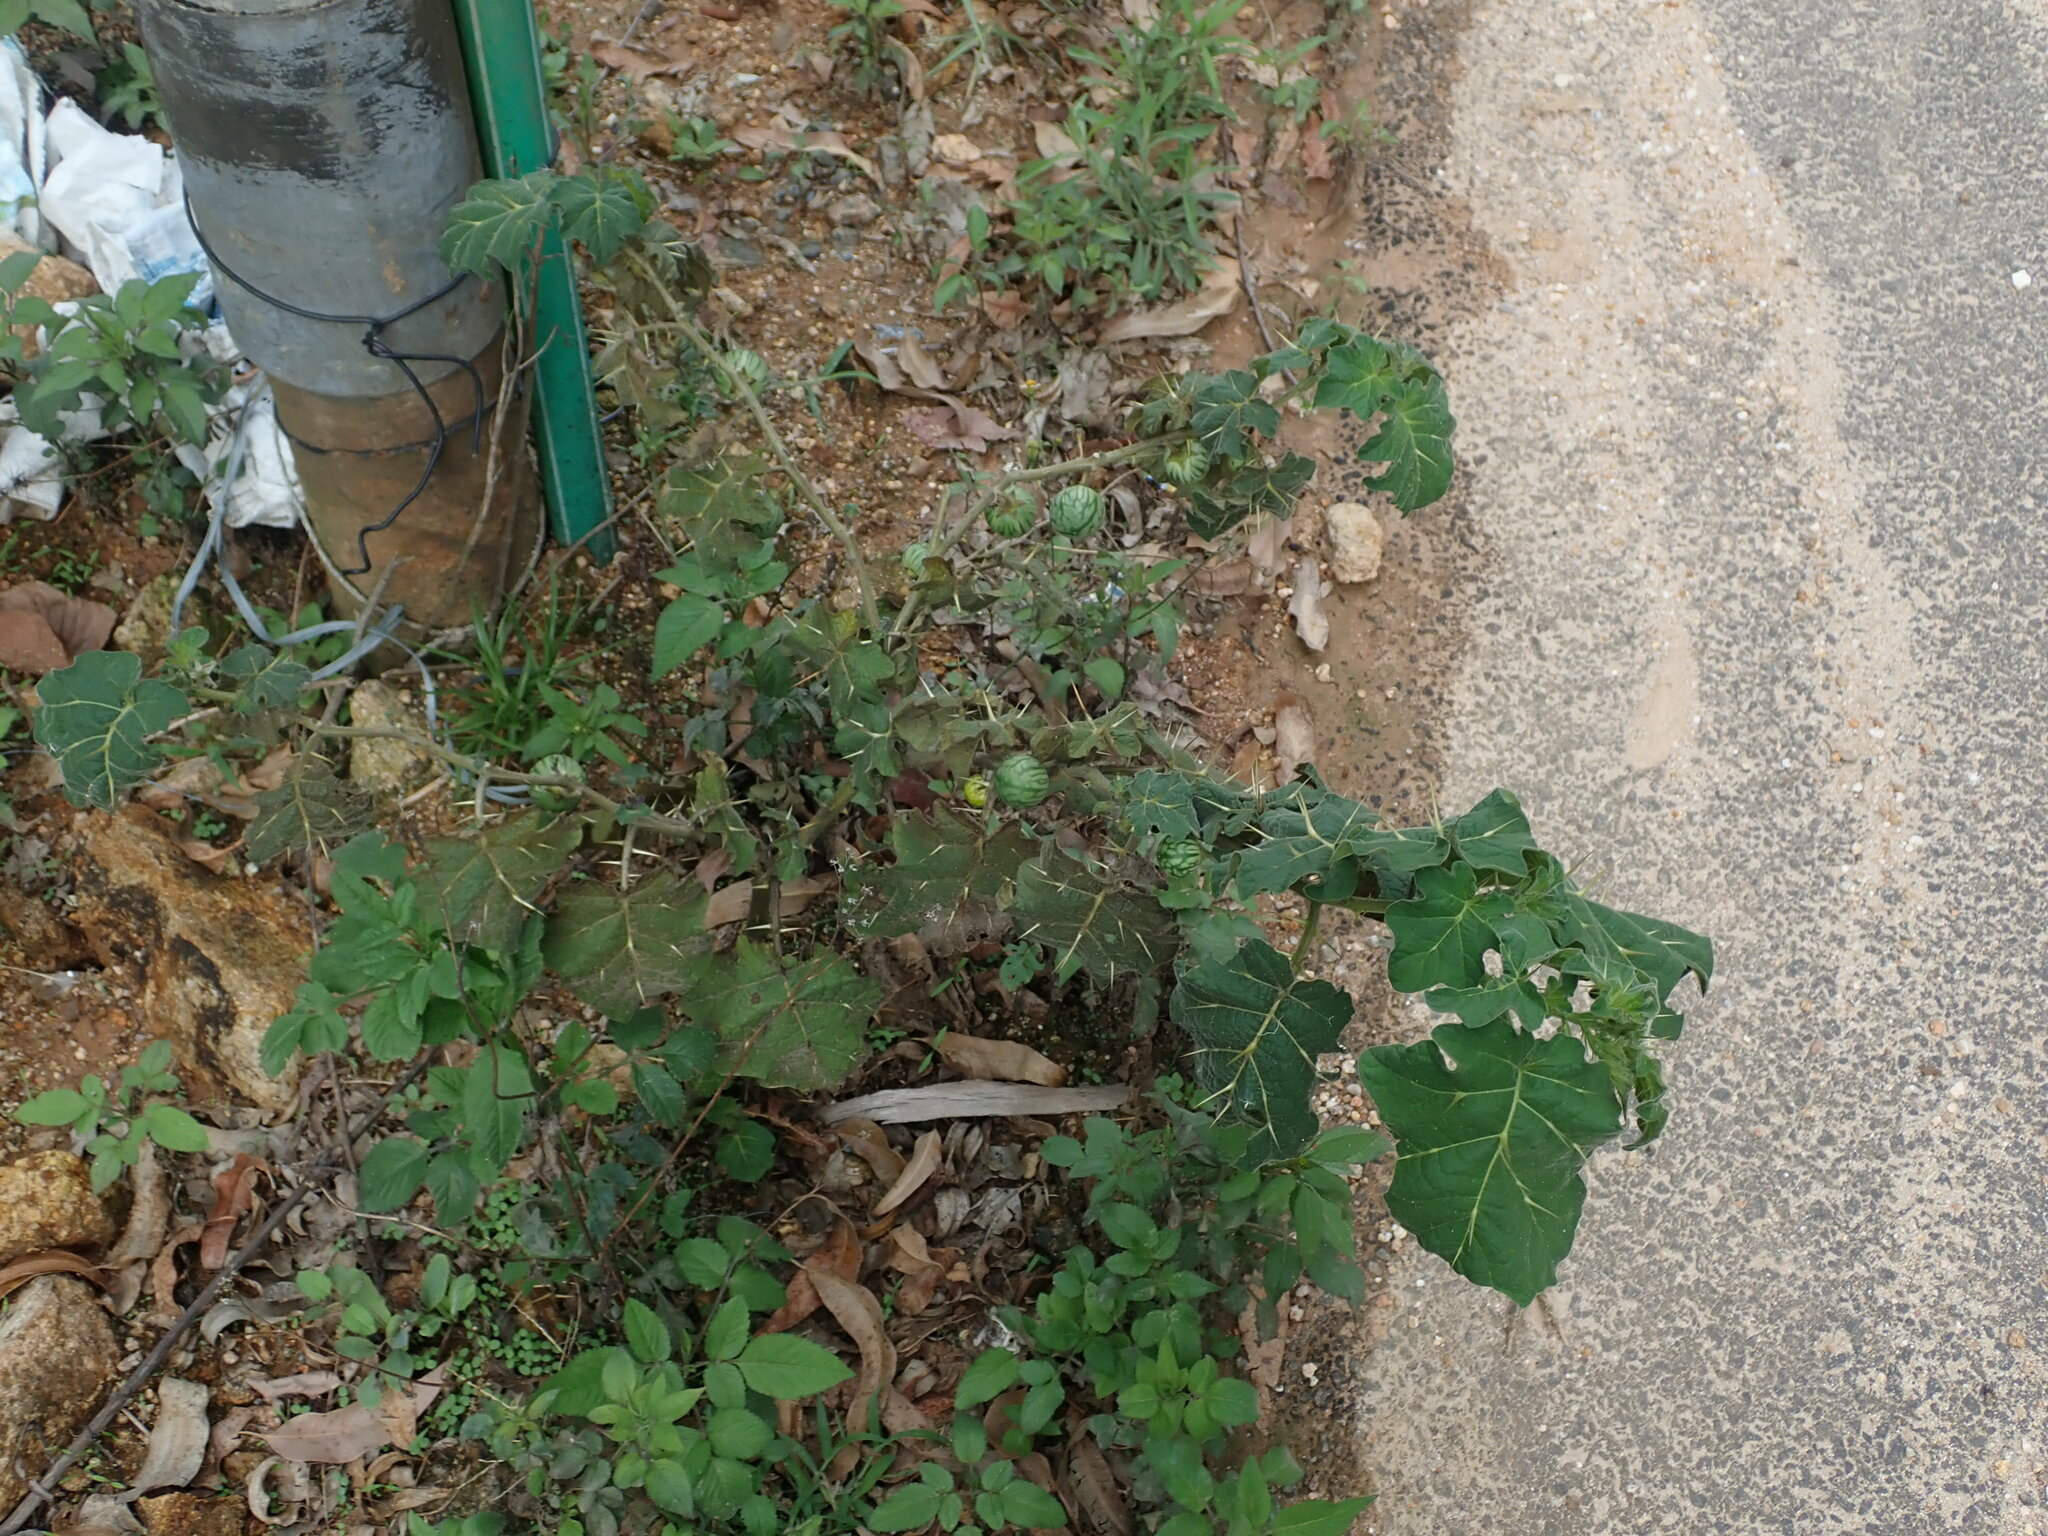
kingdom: Plantae
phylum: Tracheophyta
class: Magnoliopsida
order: Solanales
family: Solanaceae
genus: Solanum
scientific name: Solanum viarum
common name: Tropical soda apple
